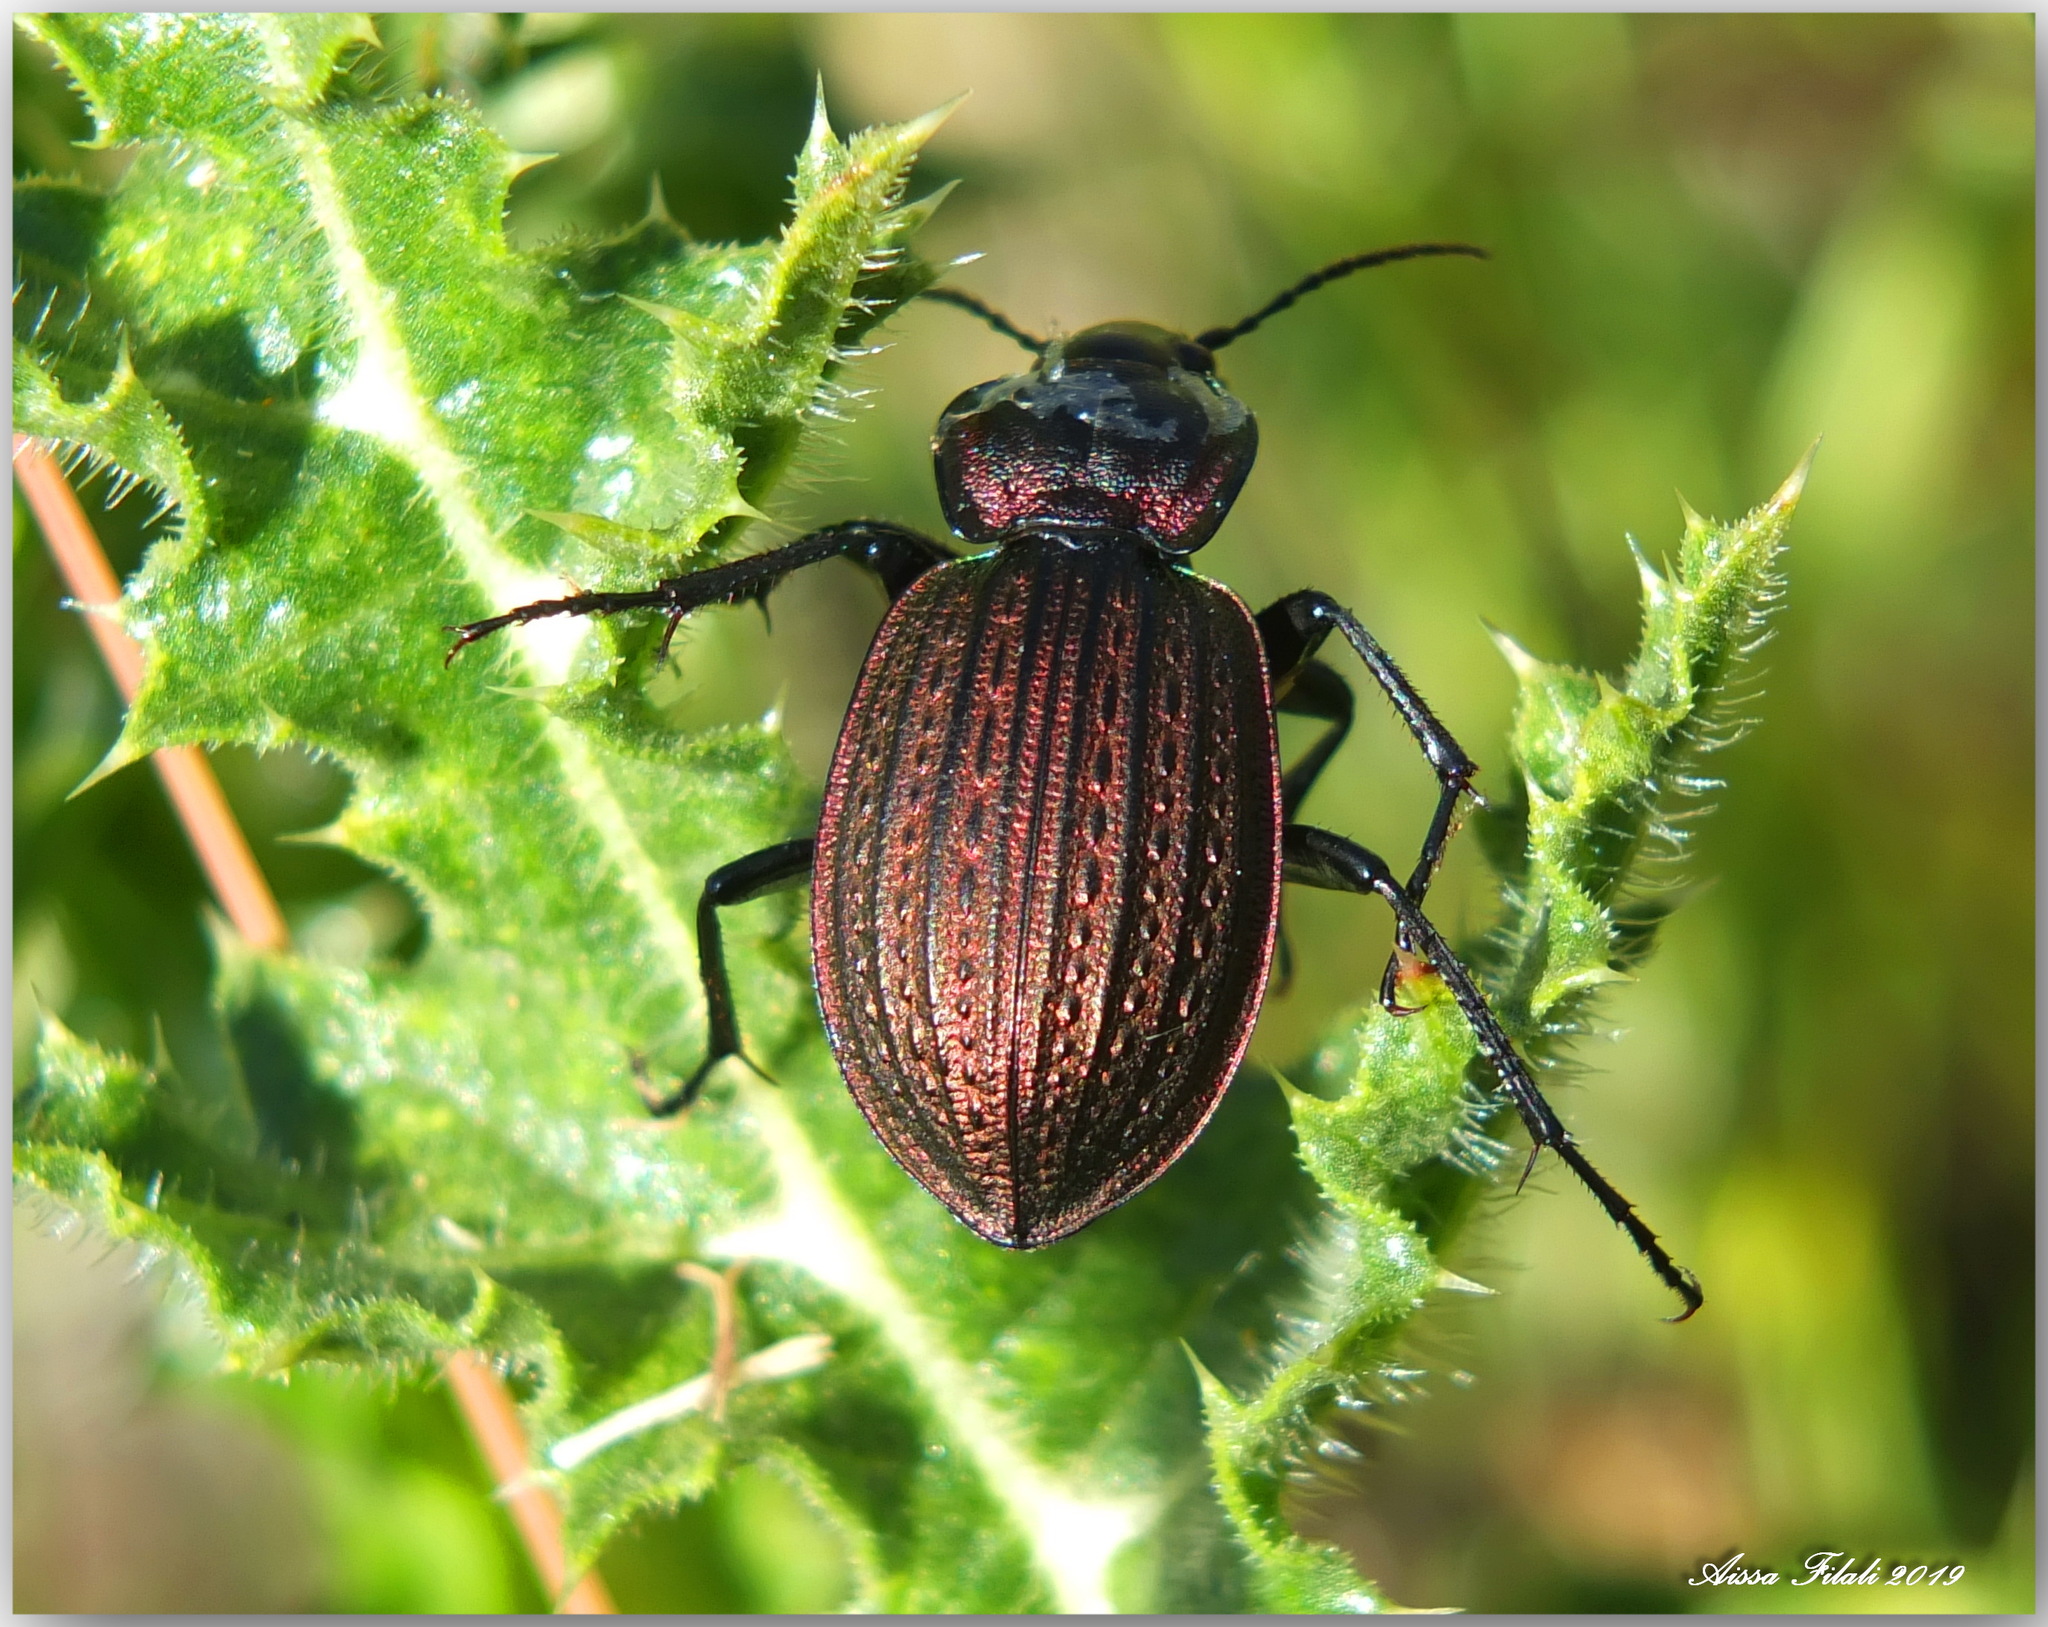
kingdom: Animalia
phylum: Arthropoda
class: Insecta
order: Coleoptera
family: Carabidae
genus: Carabus
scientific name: Carabus faminii
